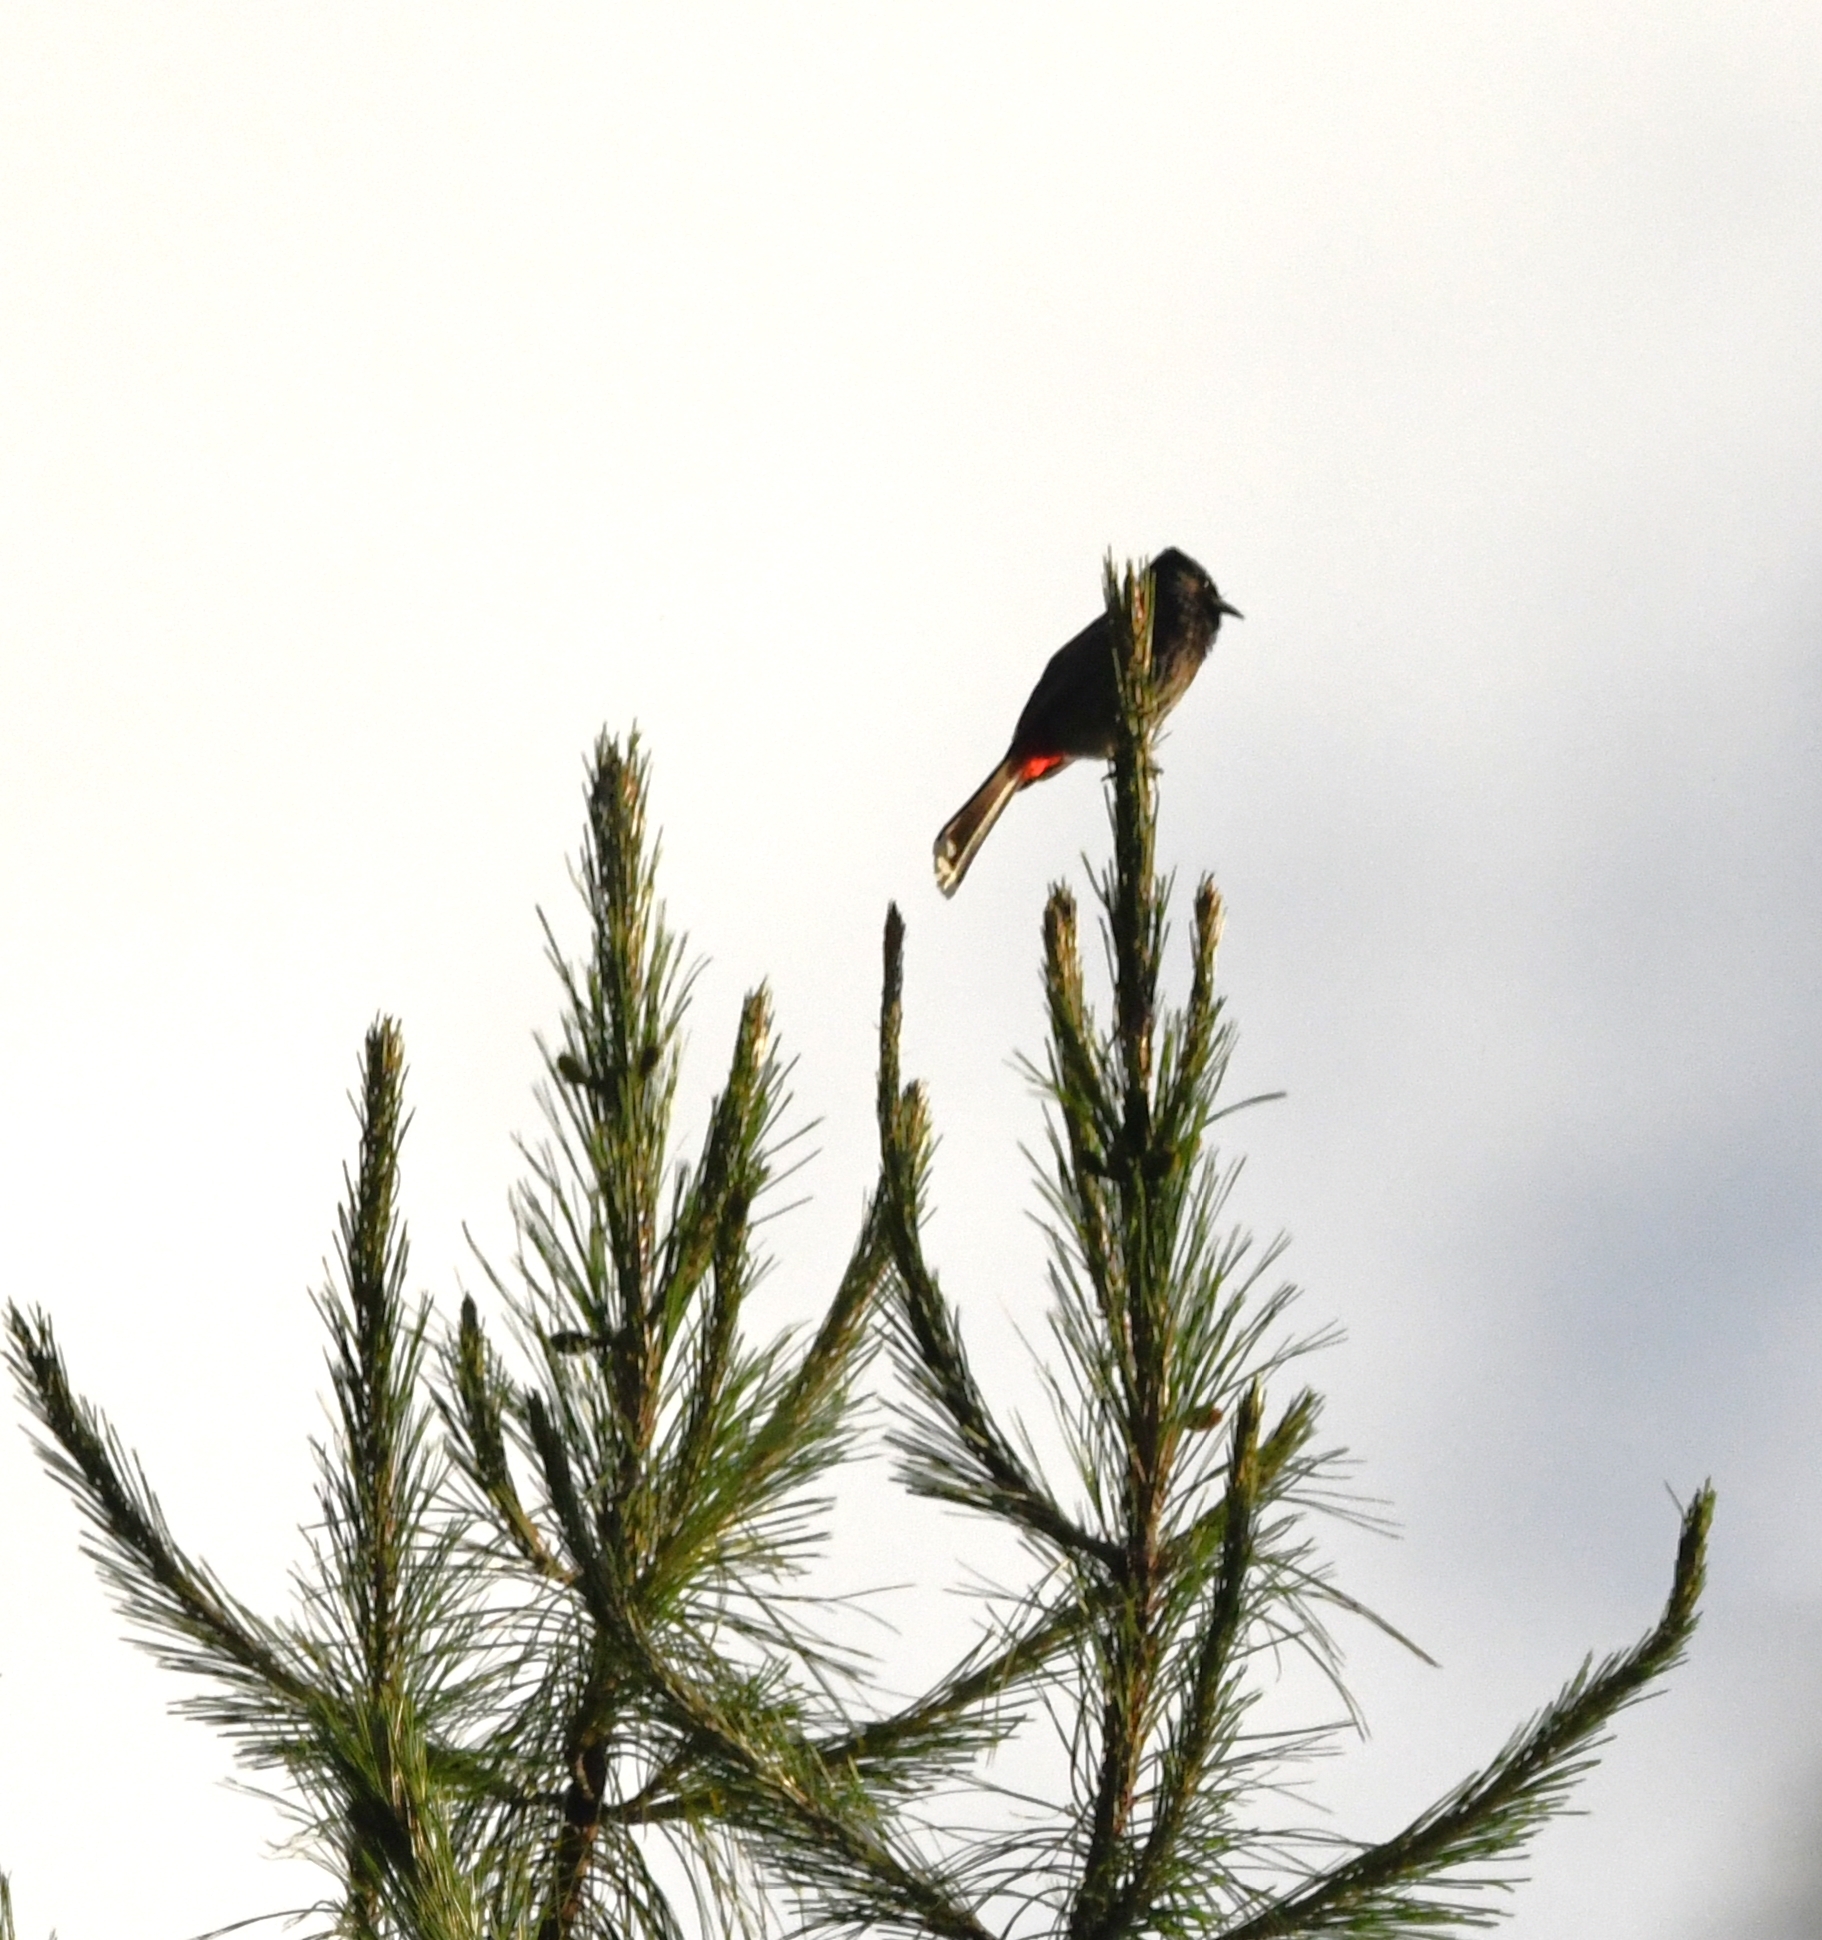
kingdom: Animalia
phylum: Chordata
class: Aves
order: Passeriformes
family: Pycnonotidae
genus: Pycnonotus
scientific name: Pycnonotus cafer
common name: Red-vented bulbul
